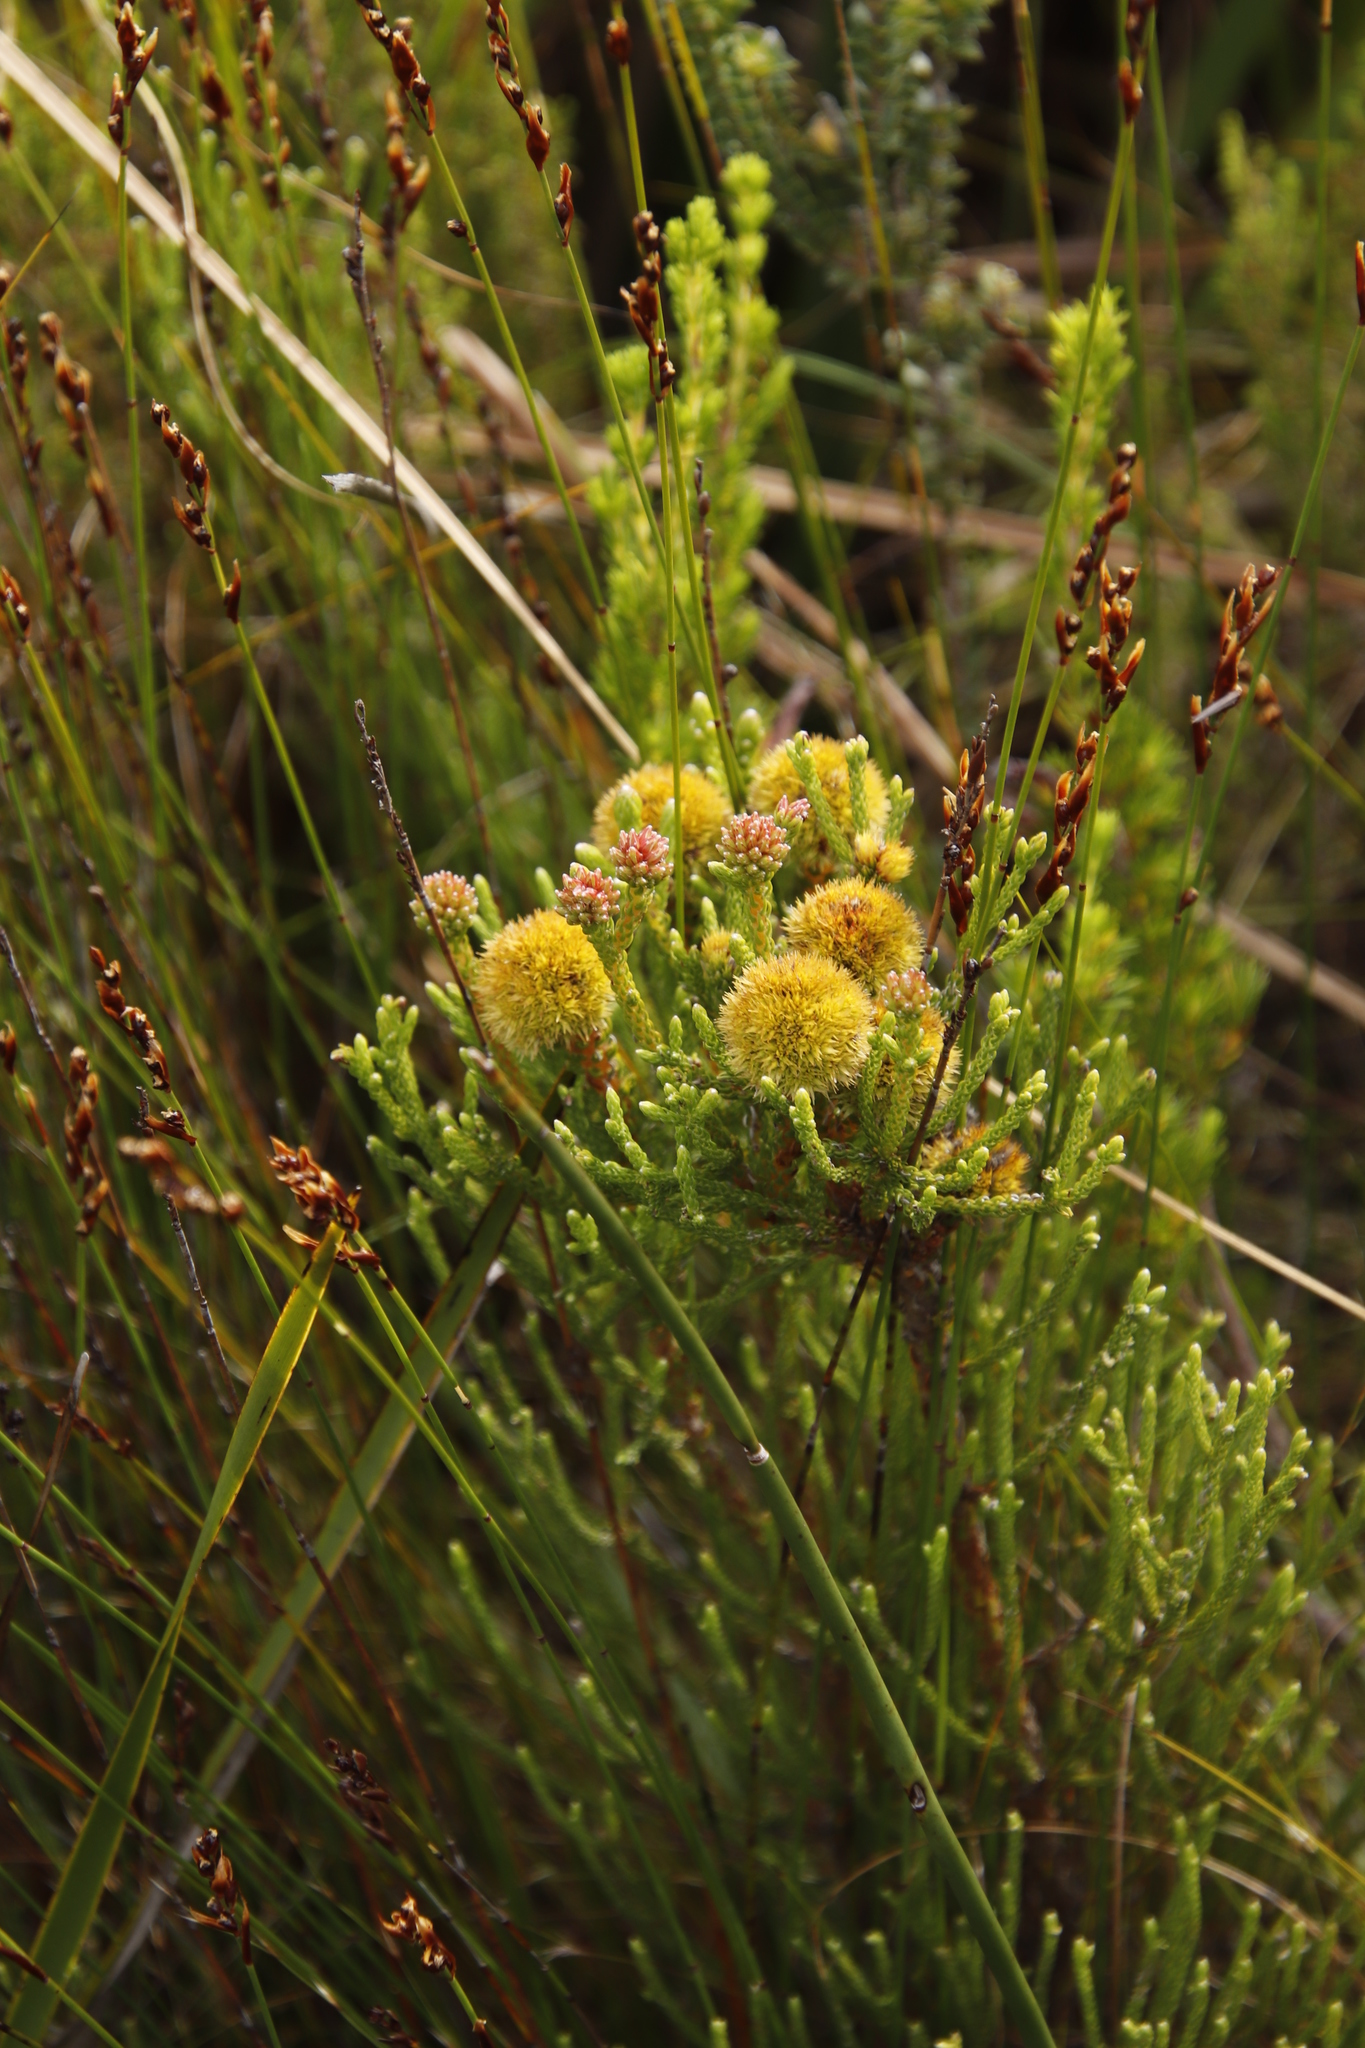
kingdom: Plantae
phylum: Tracheophyta
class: Magnoliopsida
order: Bruniales
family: Bruniaceae
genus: Brunia
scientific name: Brunia fragarioides
